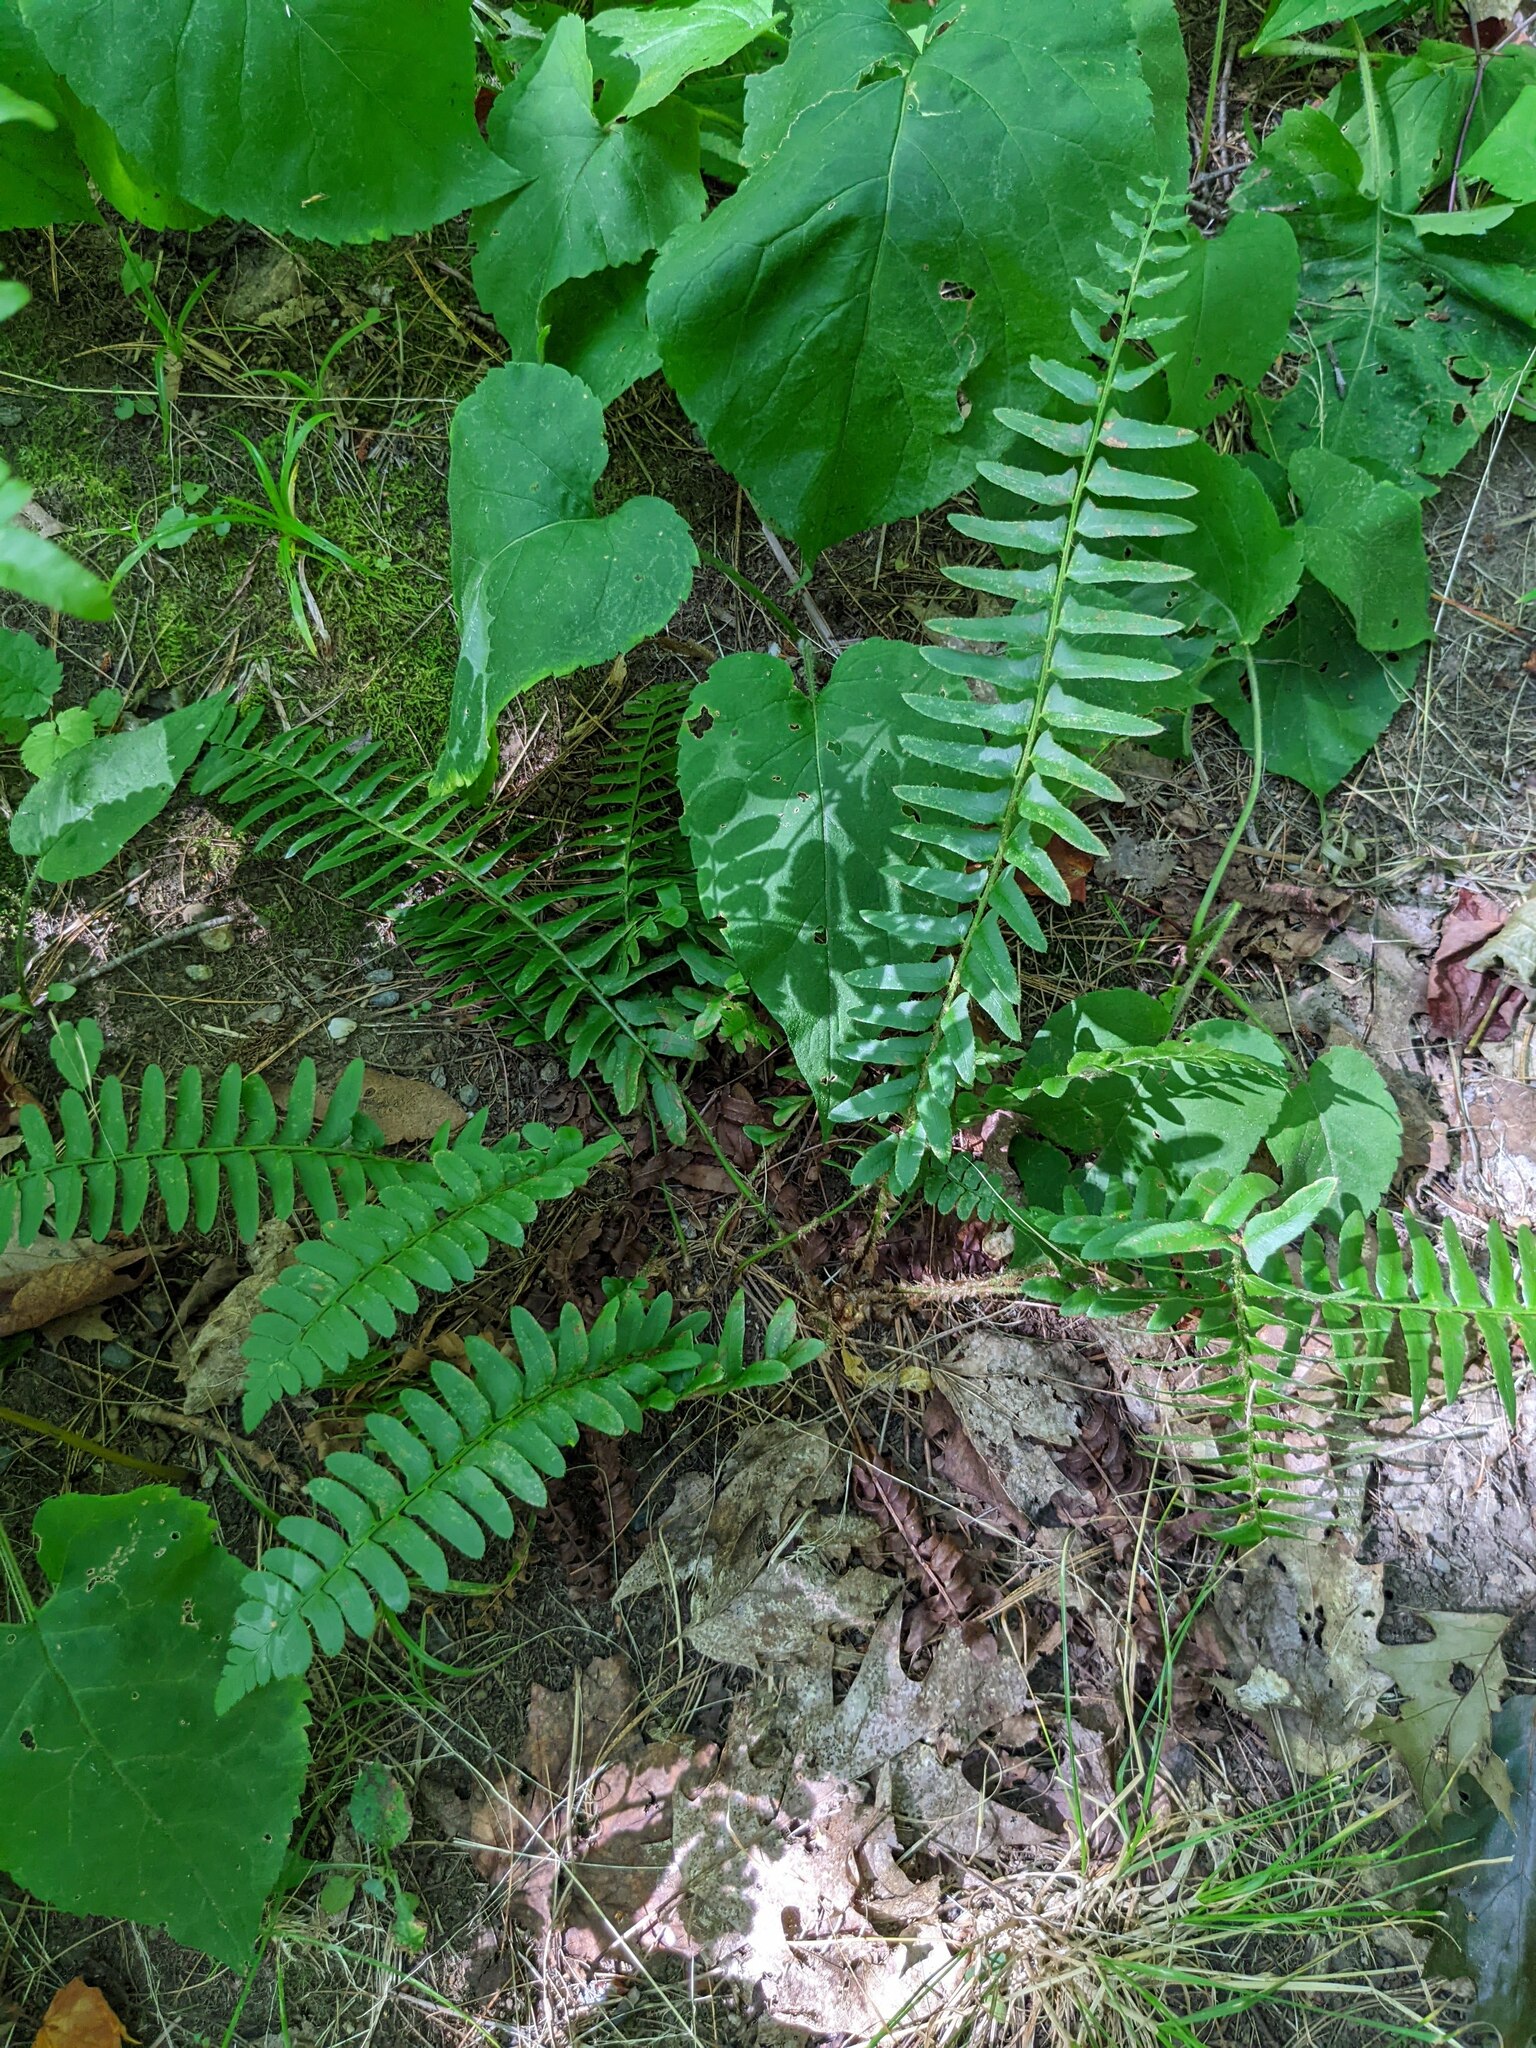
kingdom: Plantae
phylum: Tracheophyta
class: Polypodiopsida
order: Polypodiales
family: Dryopteridaceae
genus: Polystichum
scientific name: Polystichum acrostichoides
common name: Christmas fern
